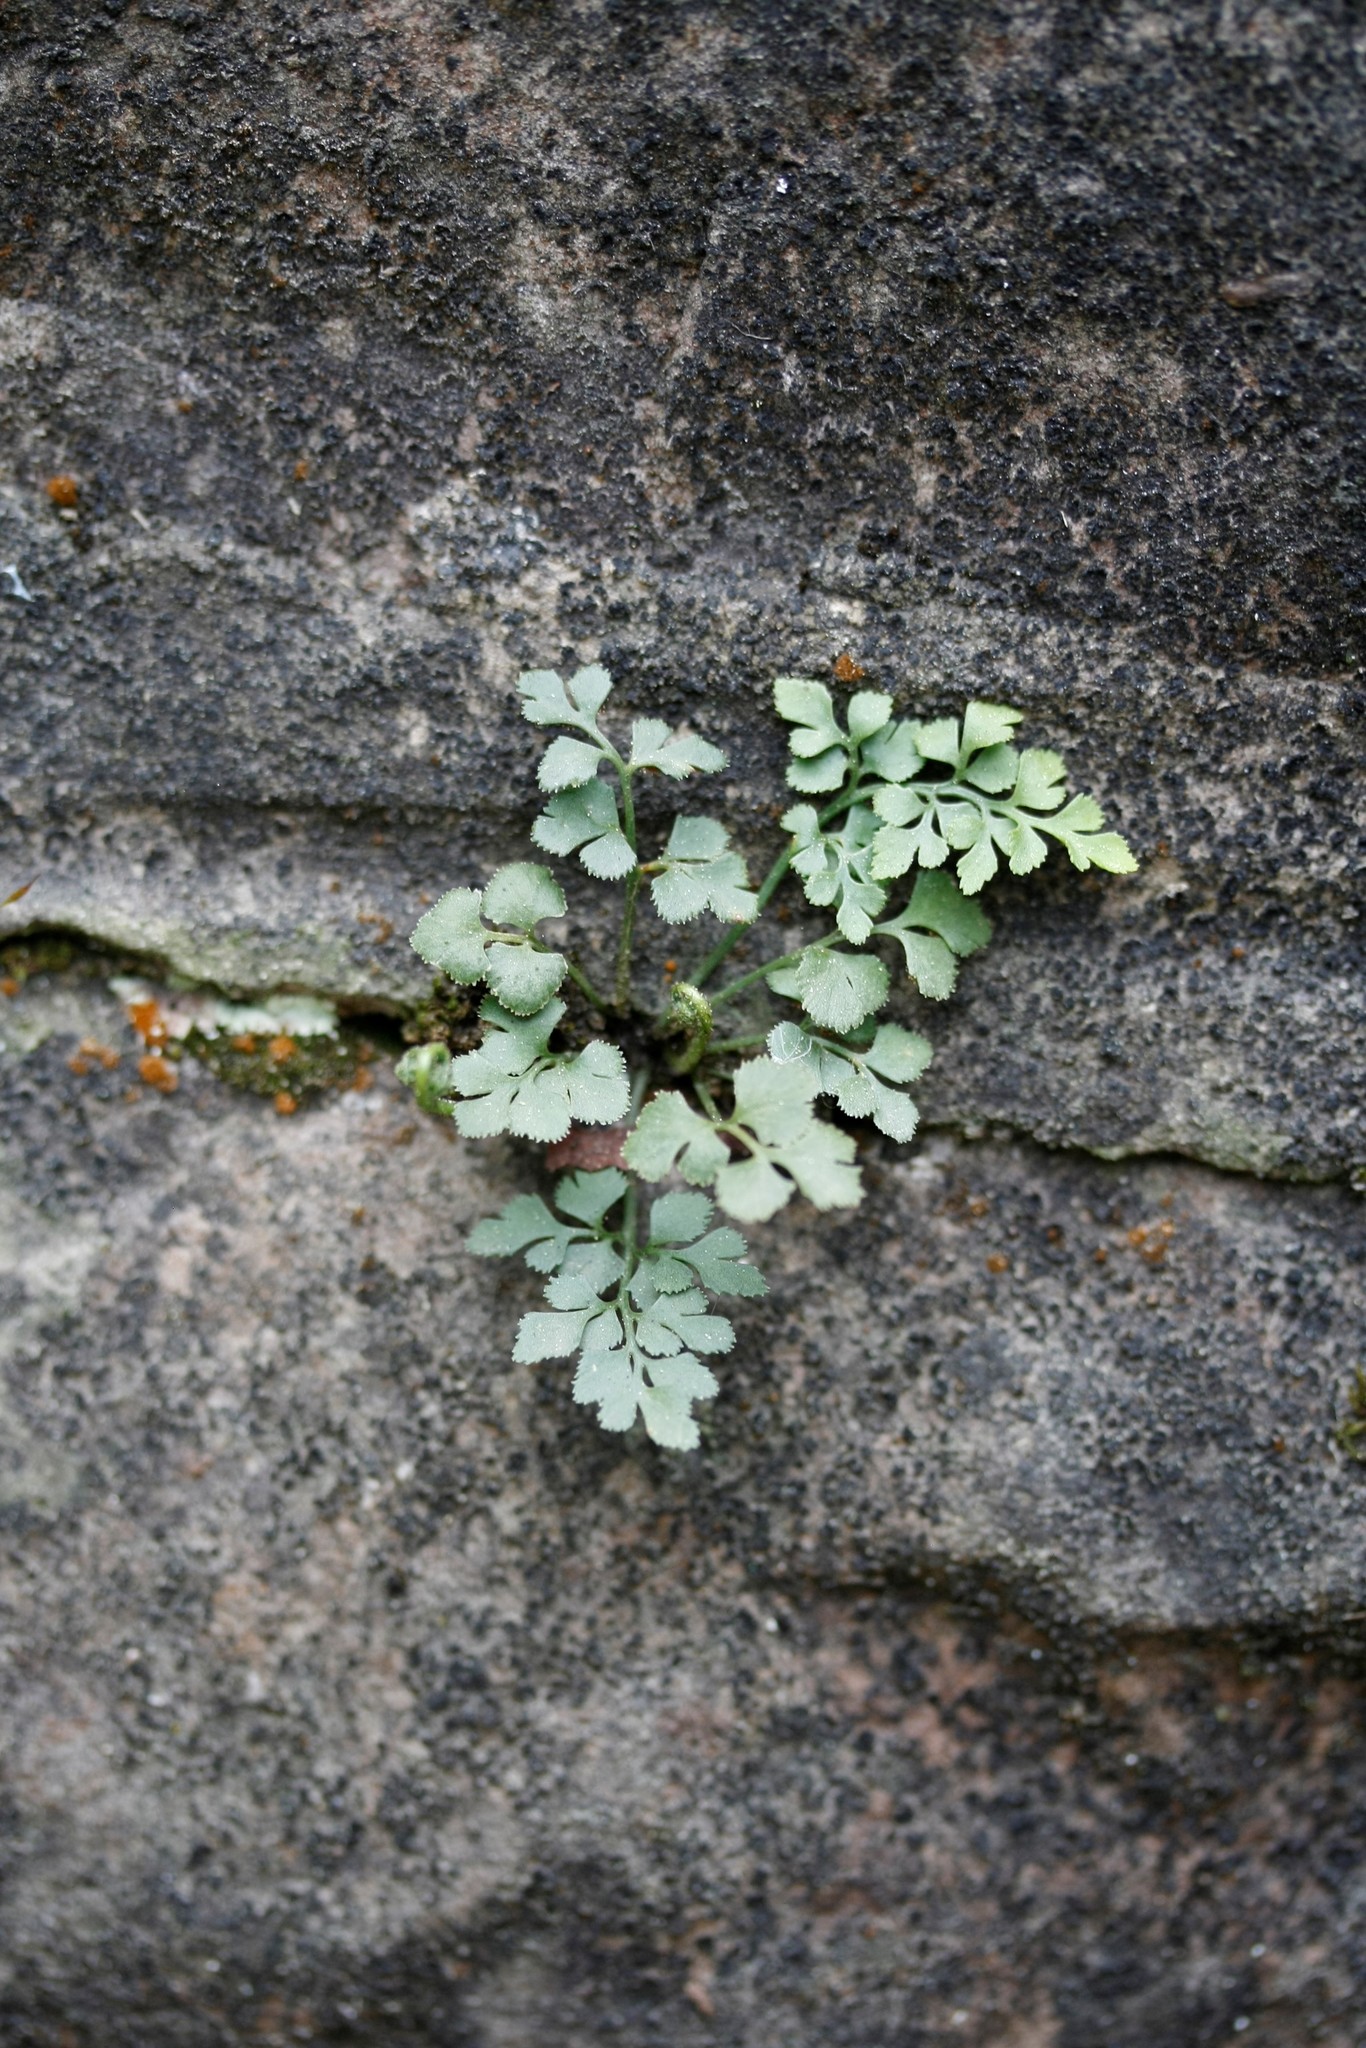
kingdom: Plantae
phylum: Tracheophyta
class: Polypodiopsida
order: Polypodiales
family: Aspleniaceae
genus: Asplenium
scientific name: Asplenium ruta-muraria
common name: Wall-rue
